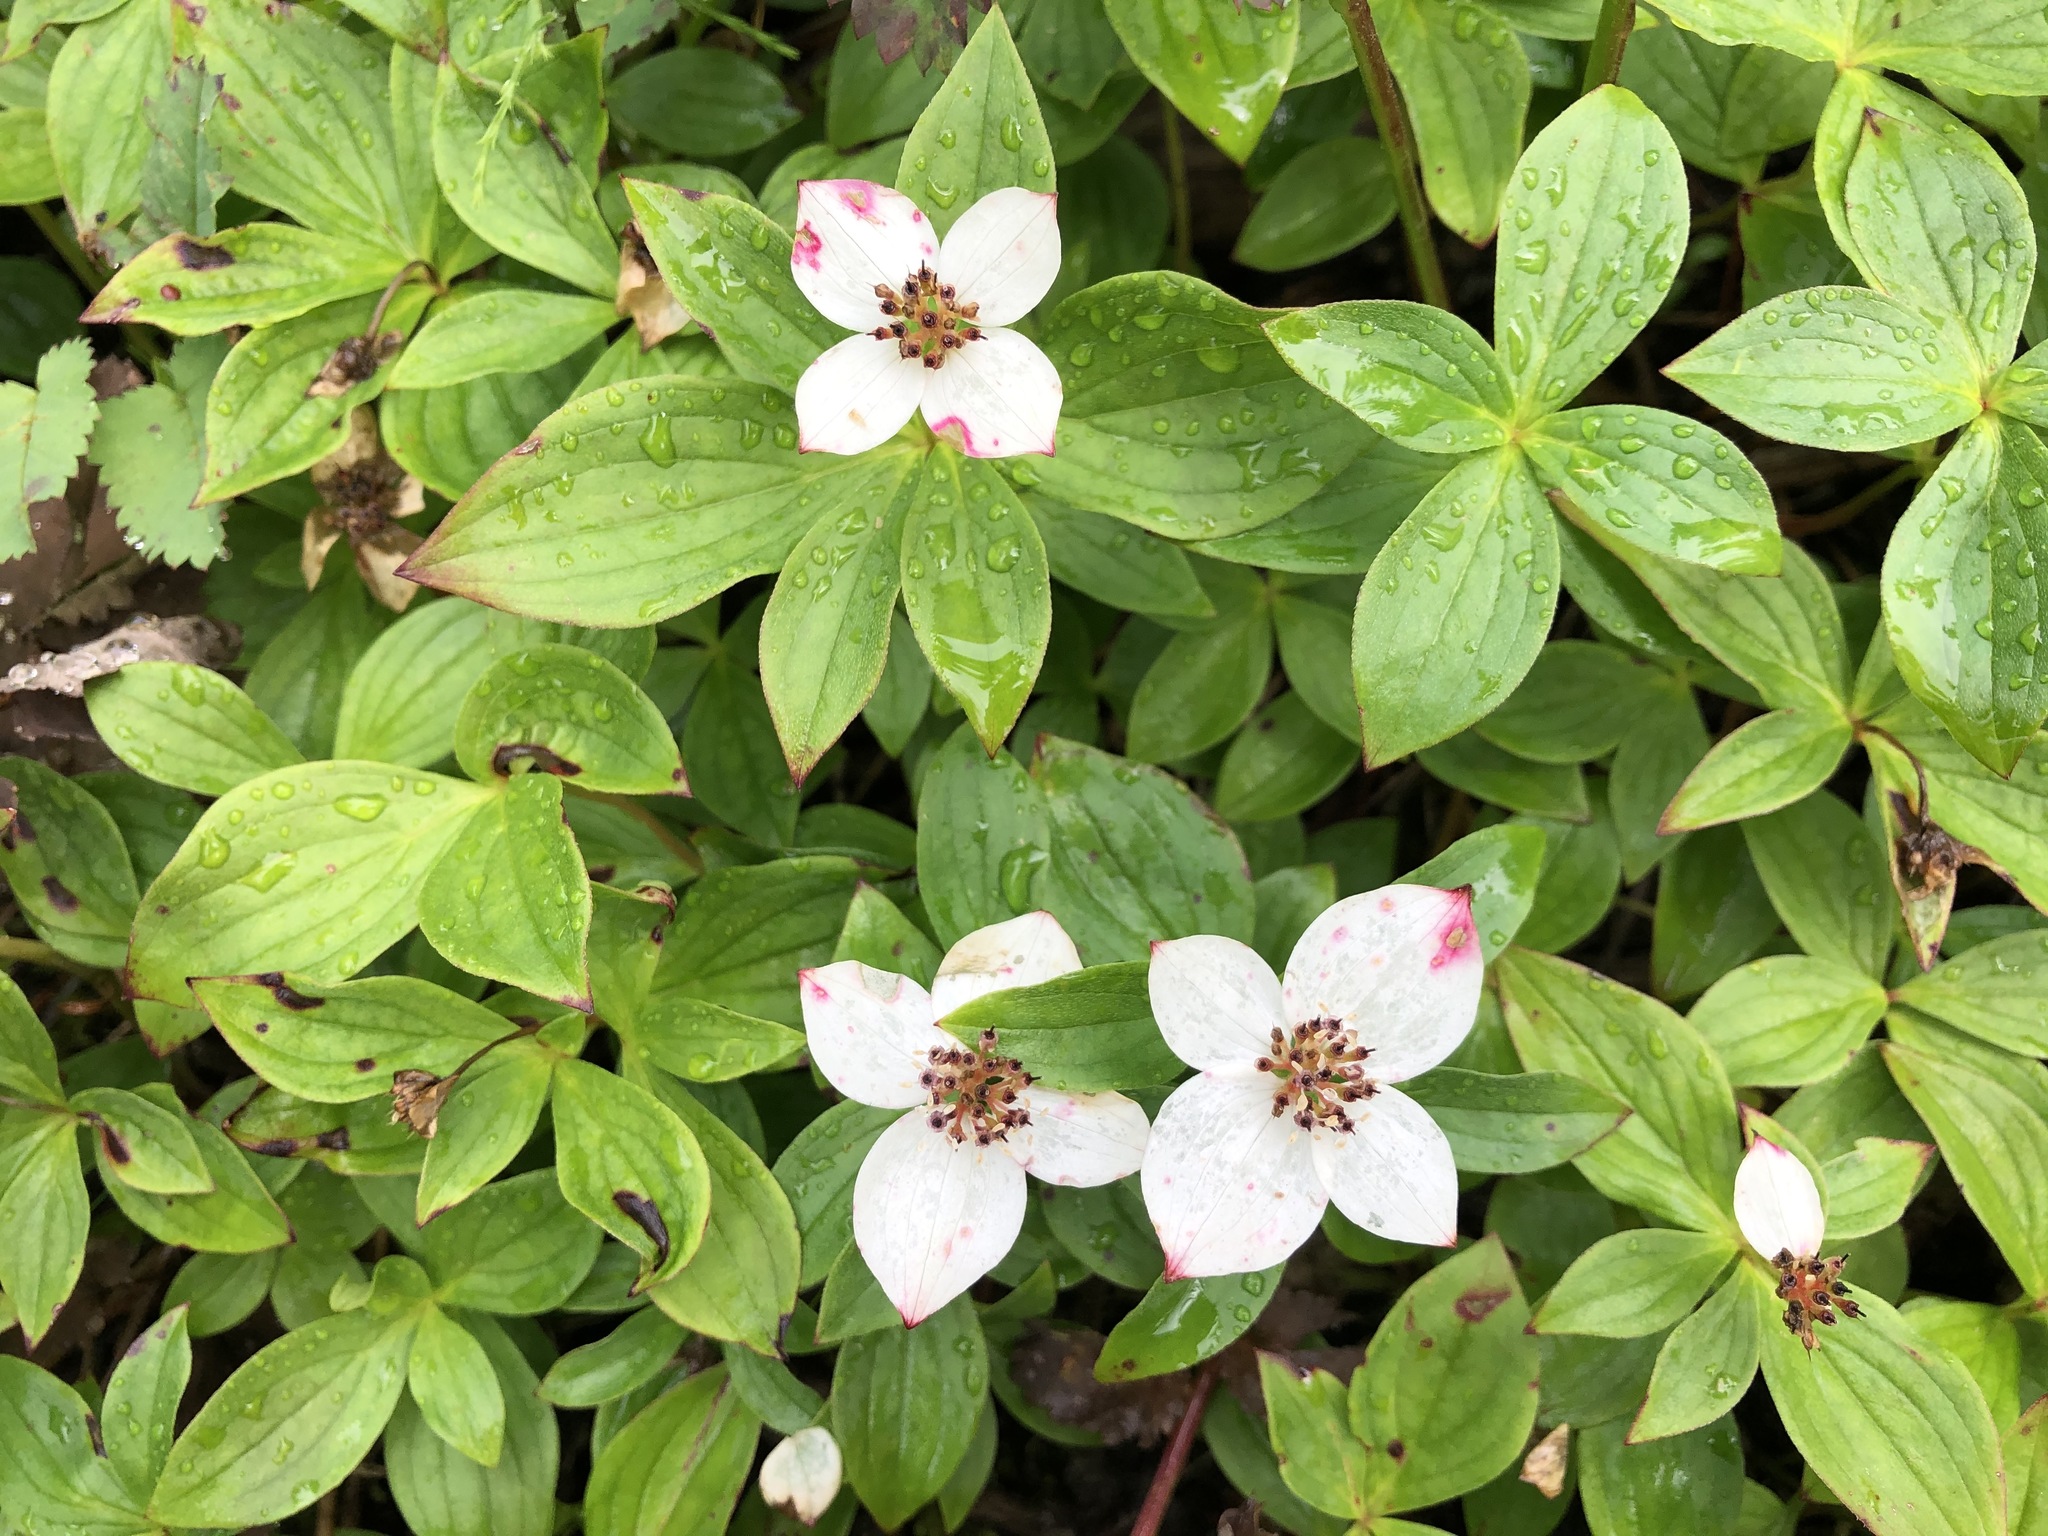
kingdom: Plantae
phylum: Tracheophyta
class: Magnoliopsida
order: Cornales
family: Cornaceae
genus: Cornus
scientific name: Cornus unalaschkensis
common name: Alaska bunchberry
